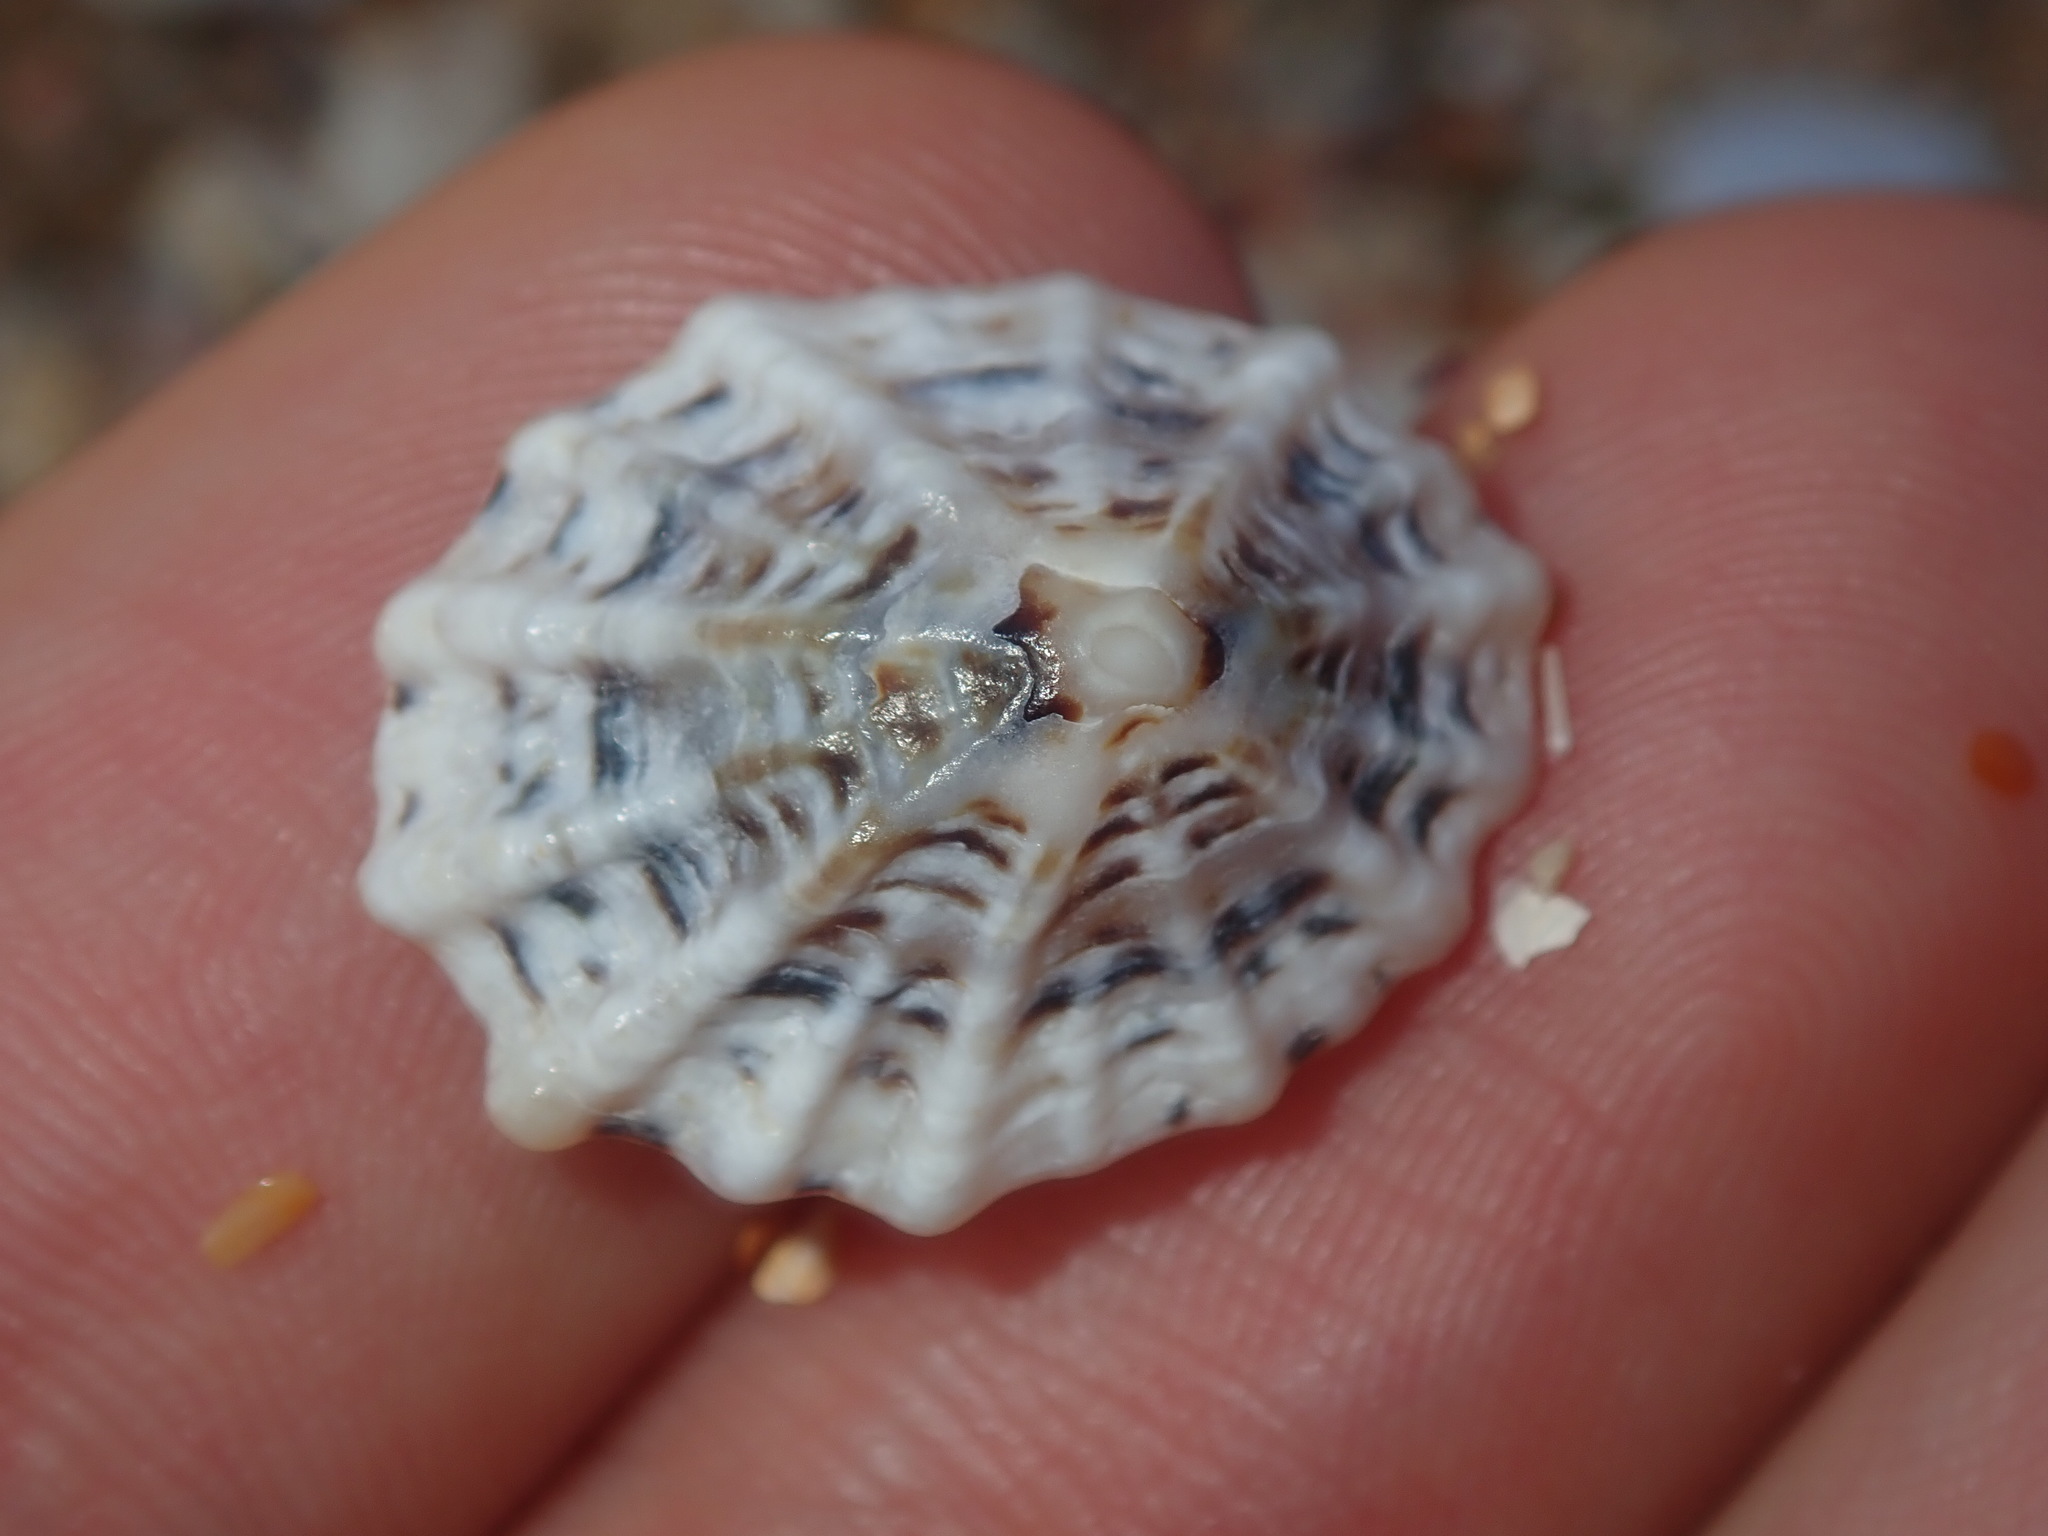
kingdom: Animalia
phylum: Mollusca
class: Gastropoda
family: Lottiidae
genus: Patelloida
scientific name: Patelloida alticostata
